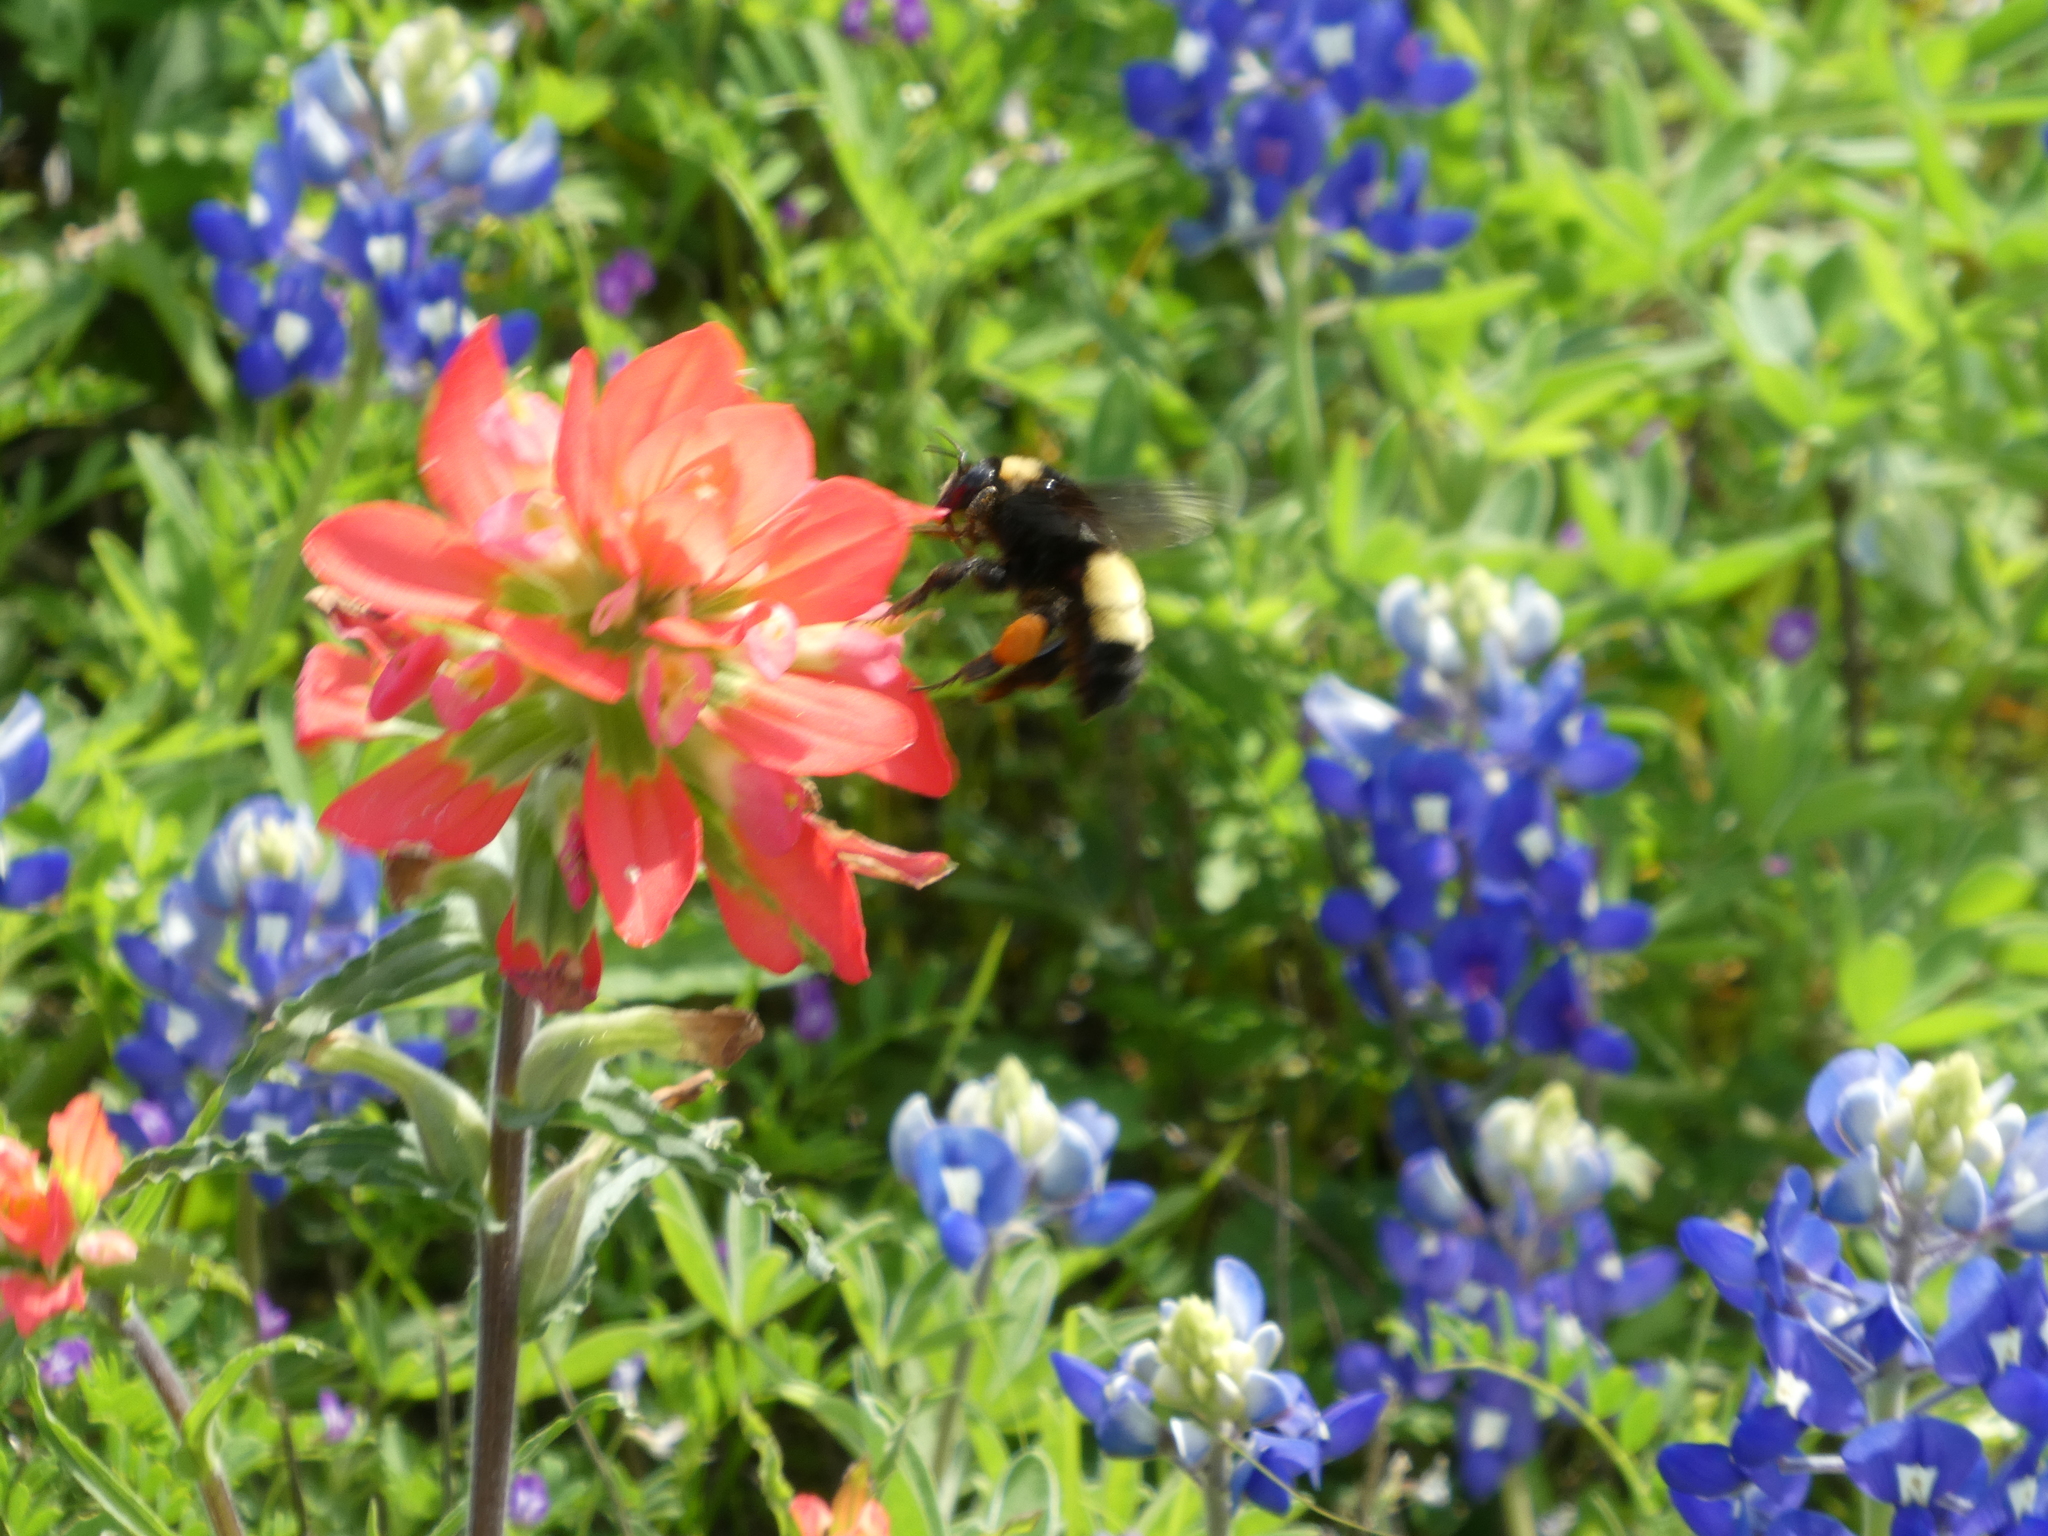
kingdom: Animalia
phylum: Arthropoda
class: Insecta
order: Hymenoptera
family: Apidae
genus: Bombus
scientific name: Bombus pensylvanicus
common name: Bumble bee
